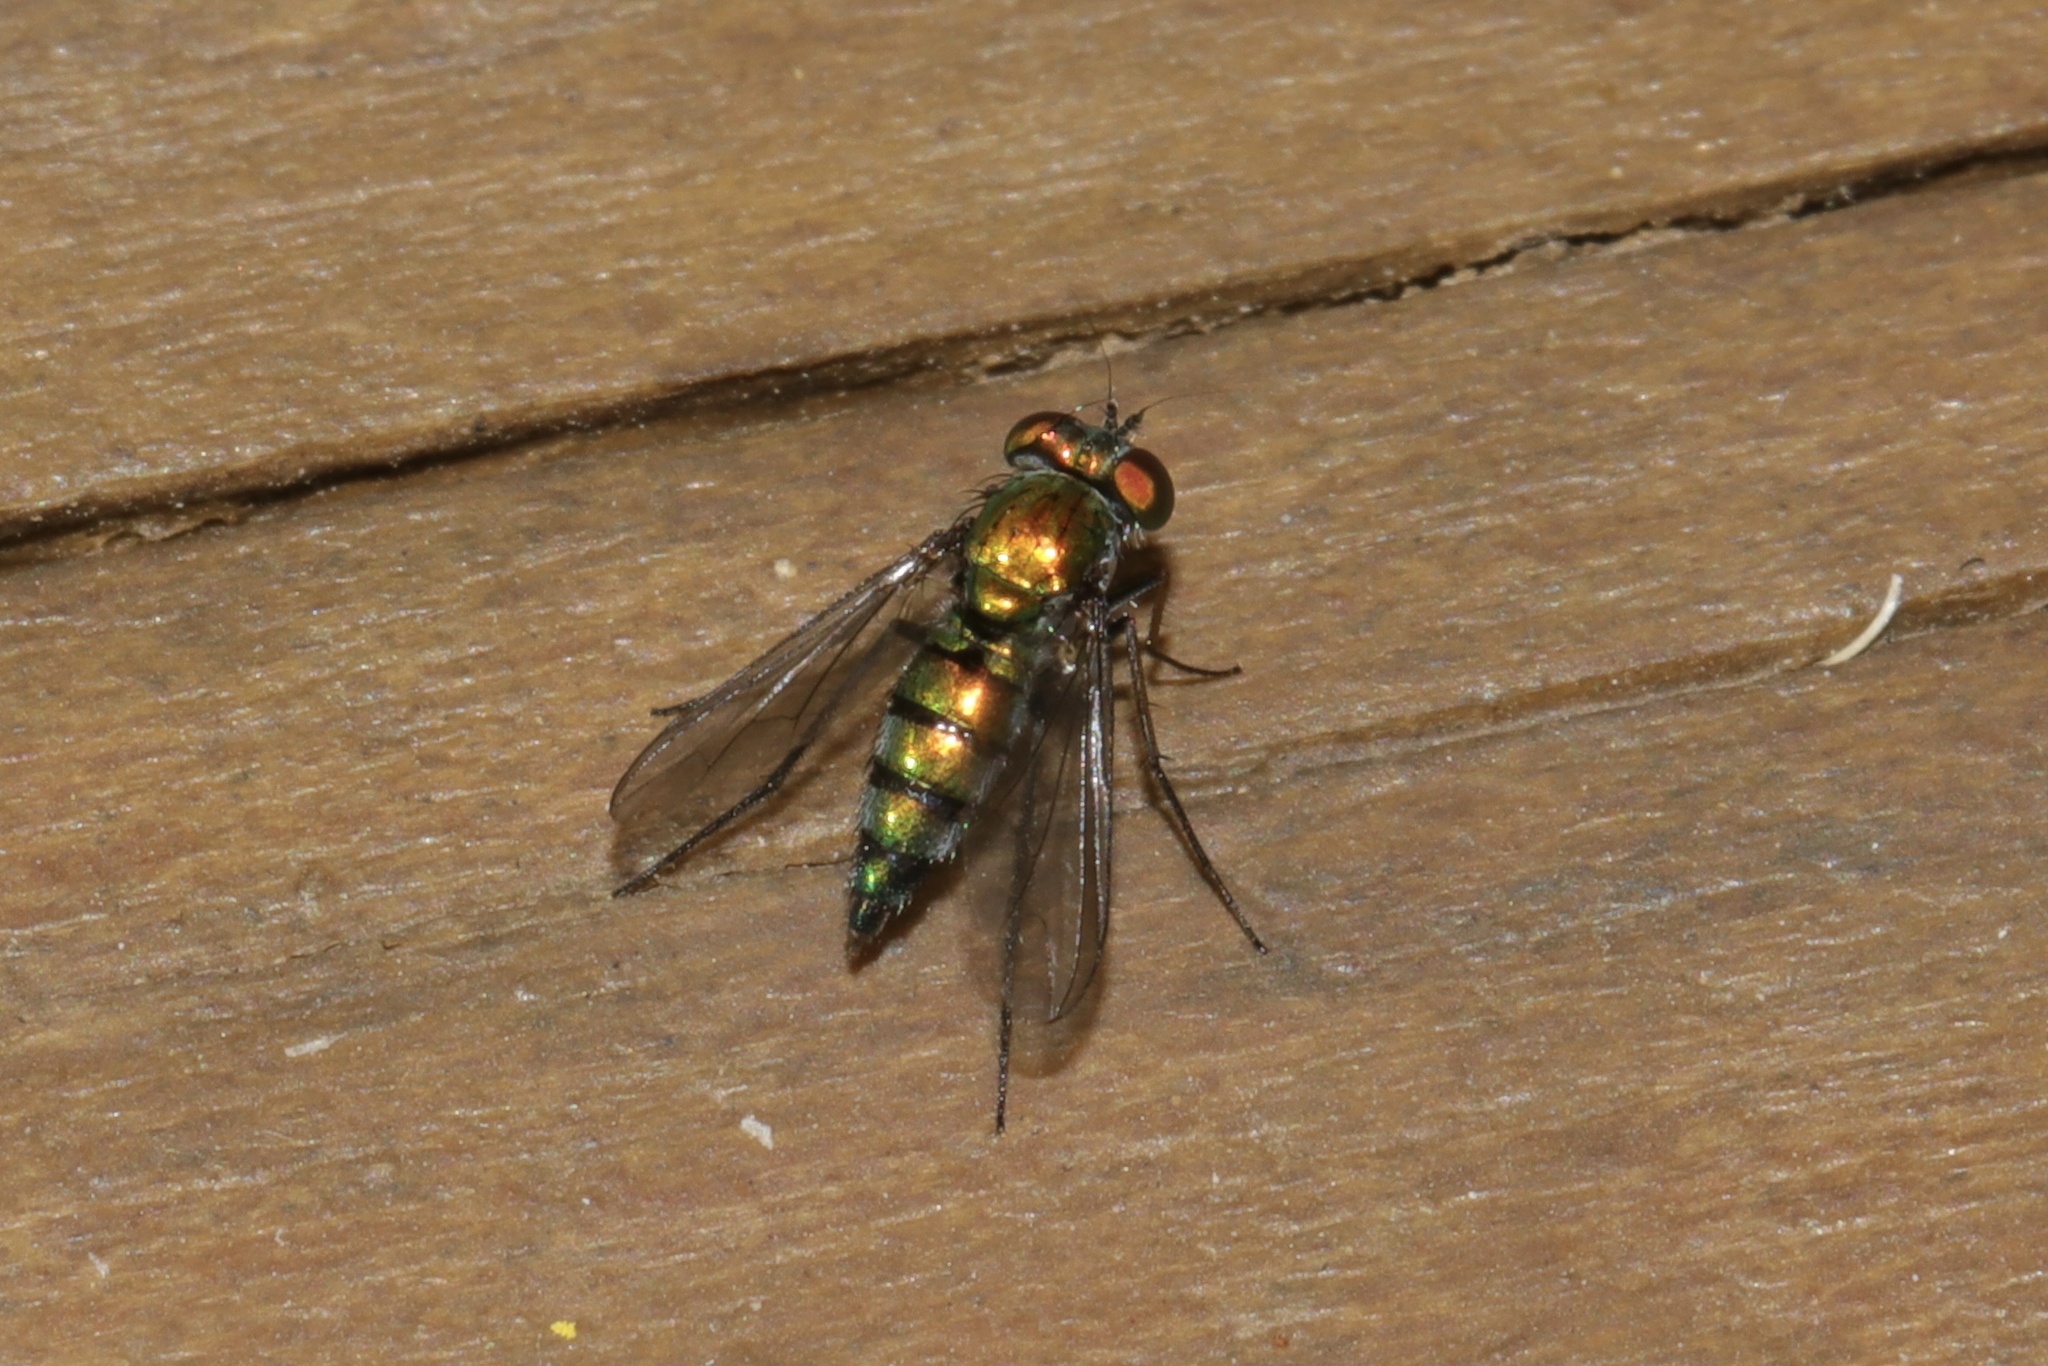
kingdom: Animalia
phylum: Arthropoda
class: Insecta
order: Diptera
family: Dolichopodidae
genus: Condylostylus
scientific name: Condylostylus longicornis
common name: Long-legged fly
